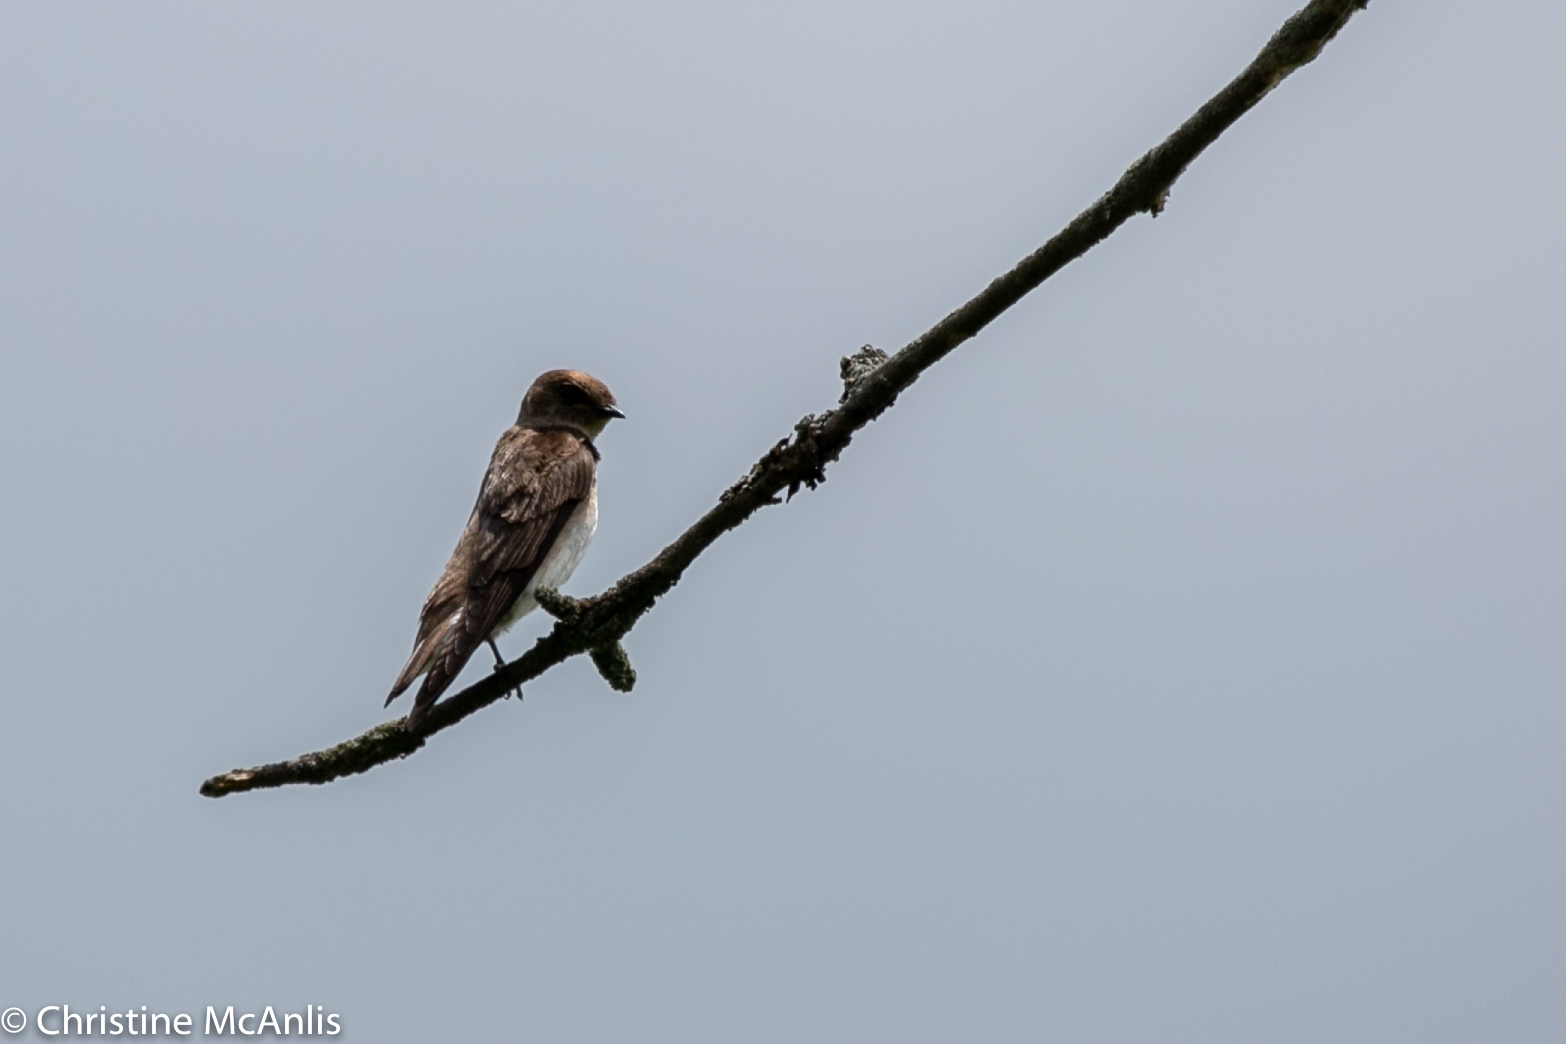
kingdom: Animalia
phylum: Chordata
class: Aves
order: Passeriformes
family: Hirundinidae
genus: Stelgidopteryx
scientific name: Stelgidopteryx serripennis
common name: Northern rough-winged swallow
